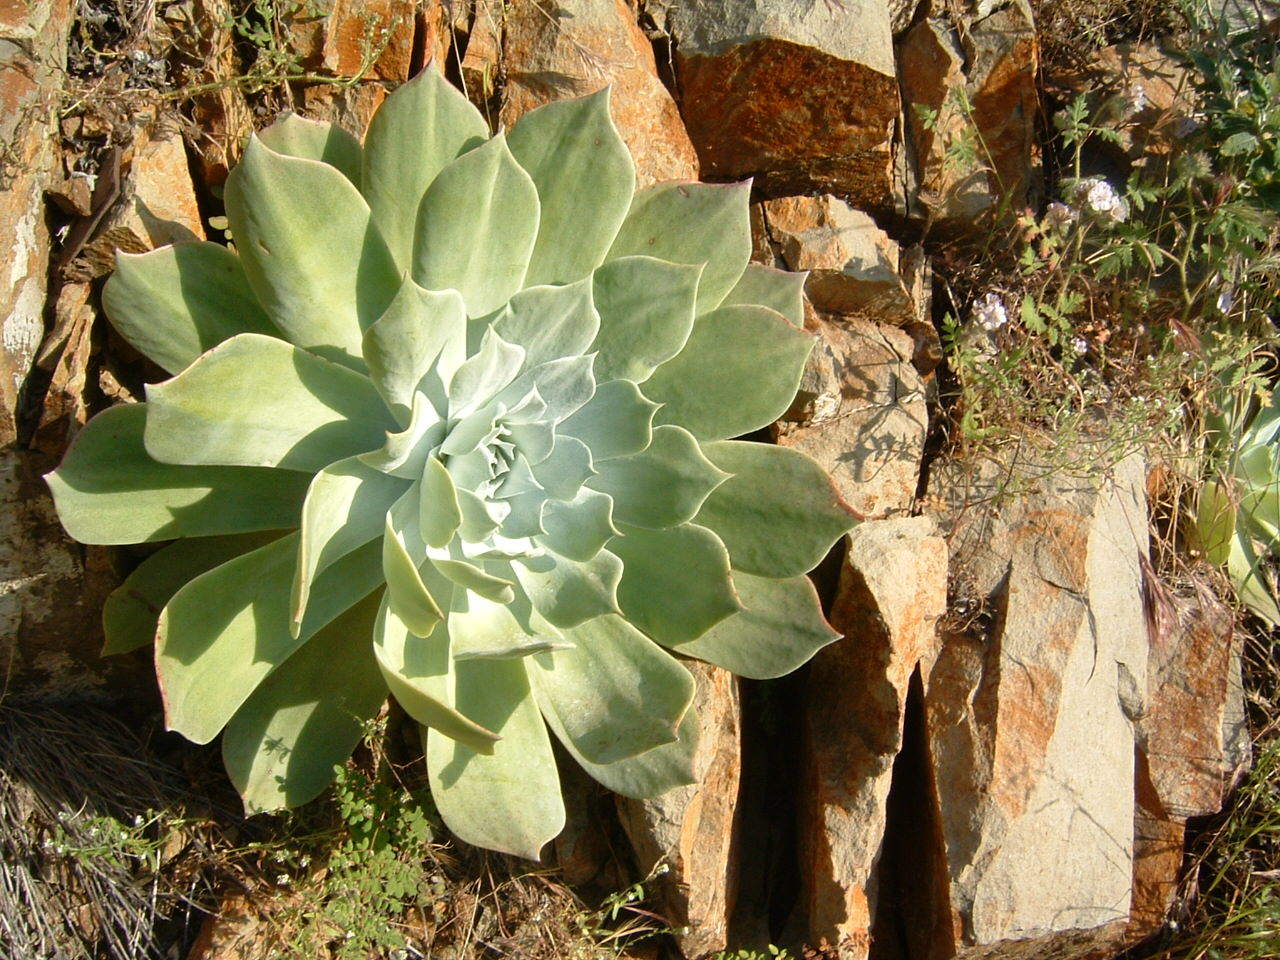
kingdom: Plantae
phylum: Tracheophyta
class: Magnoliopsida
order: Saxifragales
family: Crassulaceae
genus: Dudleya
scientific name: Dudleya pulverulenta
